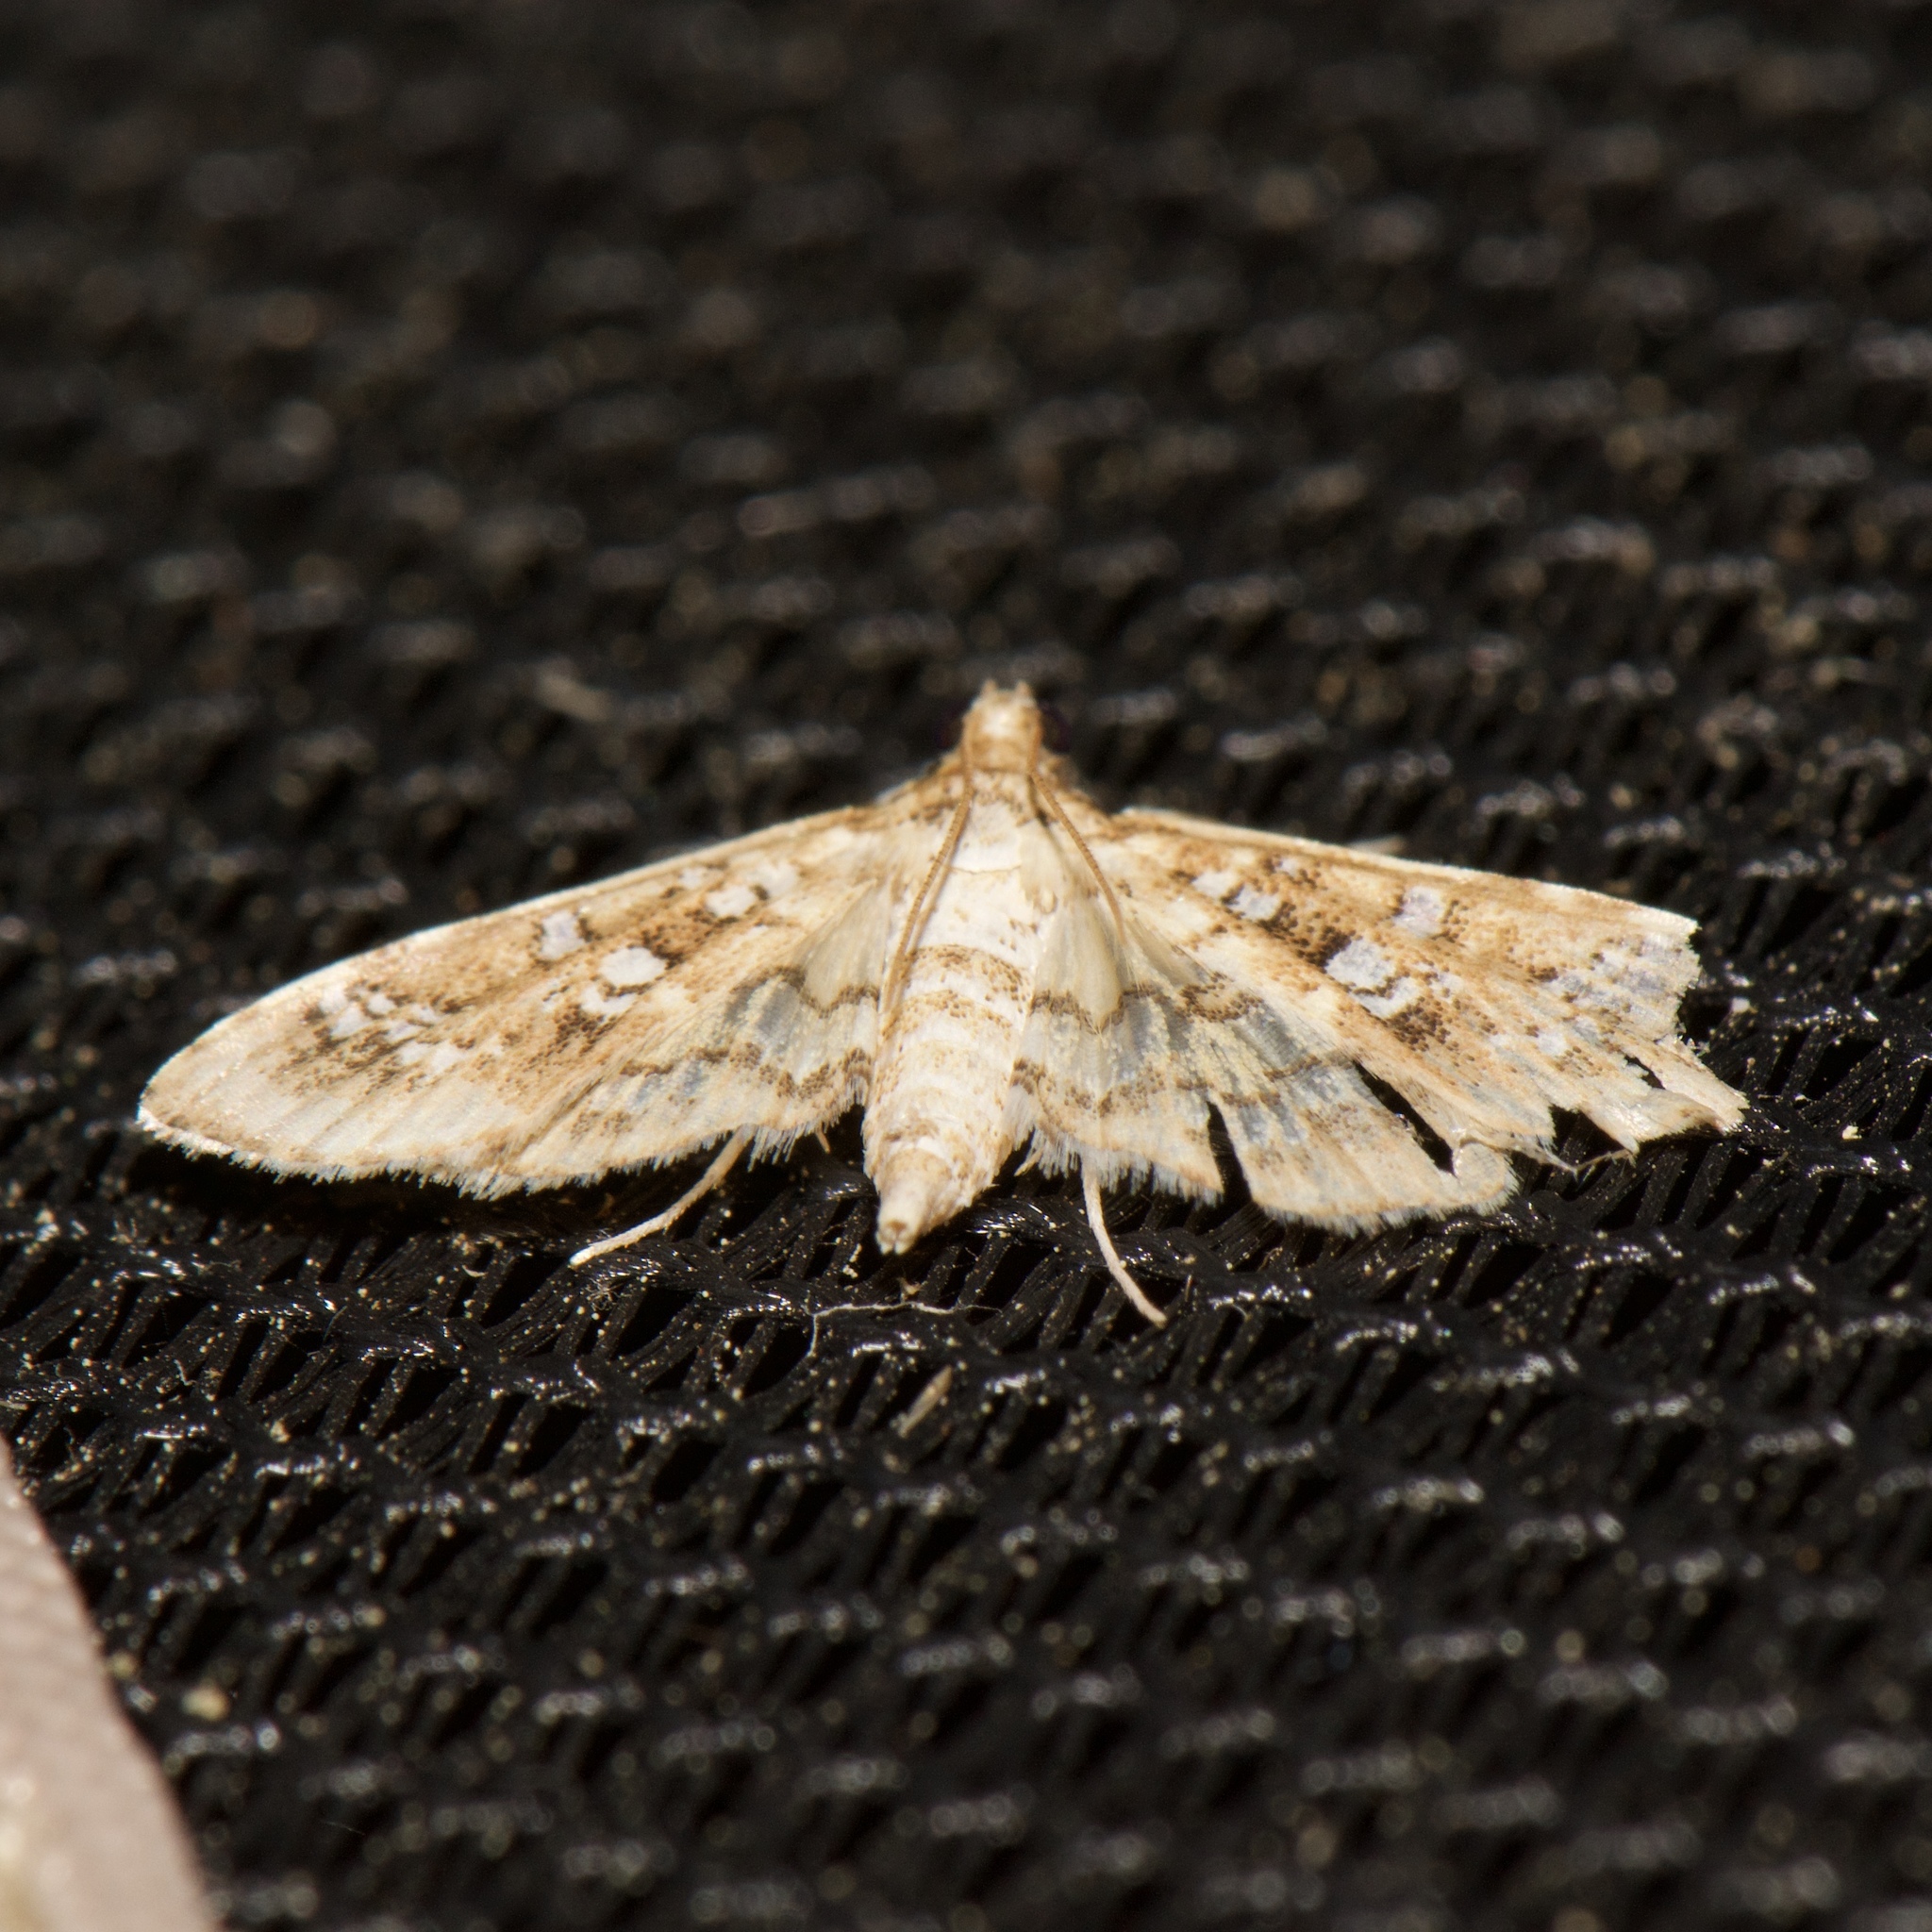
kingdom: Animalia
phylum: Arthropoda
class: Insecta
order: Lepidoptera
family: Crambidae
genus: Samea
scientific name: Samea multiplicalis
